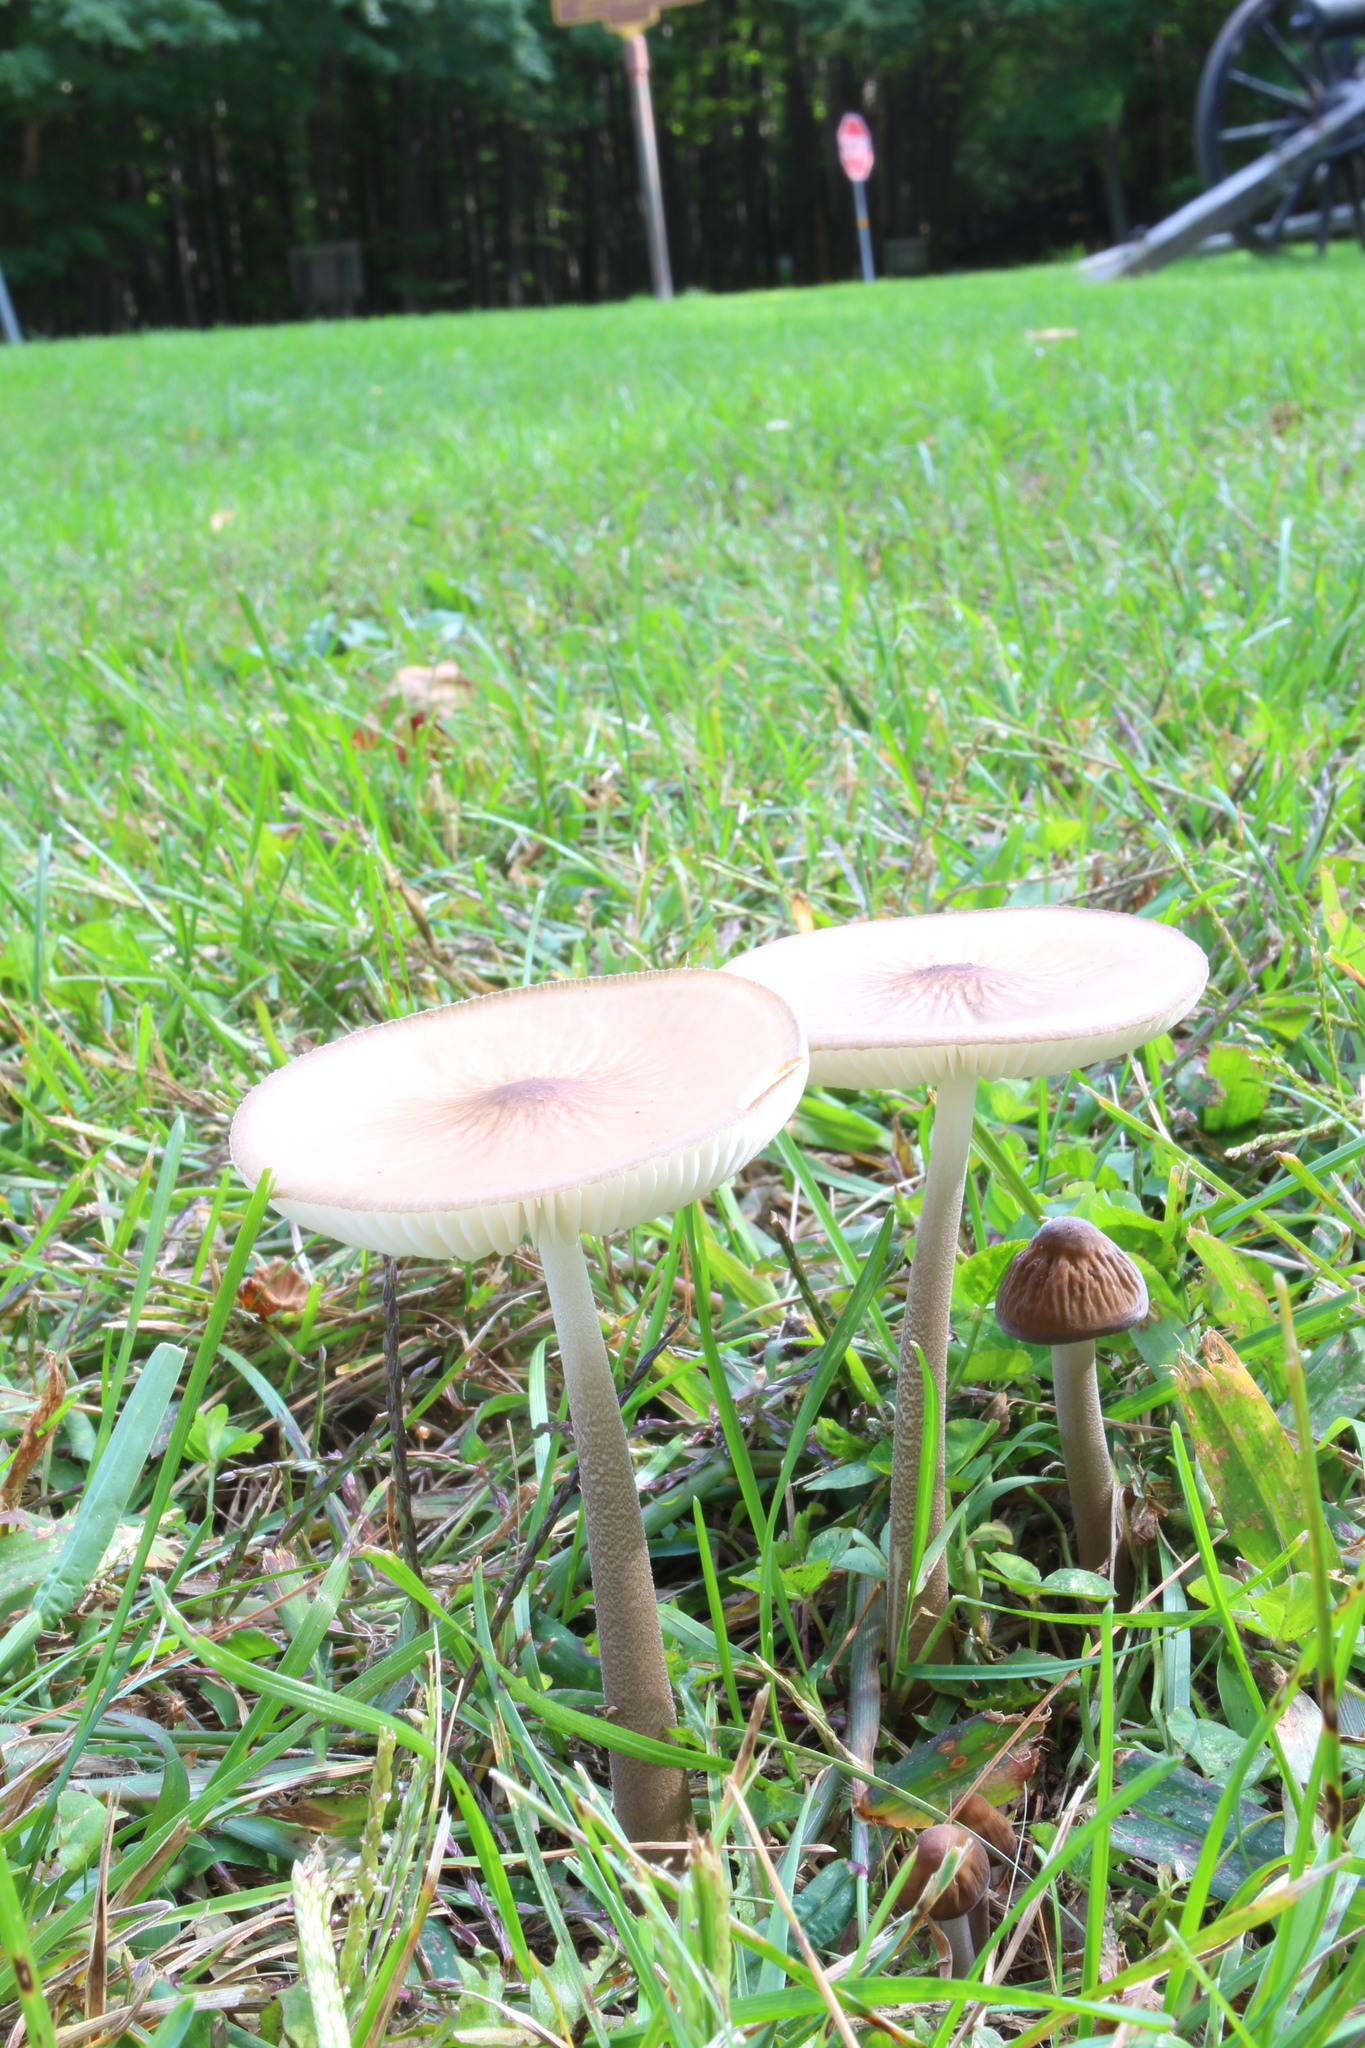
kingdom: Fungi
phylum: Basidiomycota
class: Agaricomycetes
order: Agaricales
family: Physalacriaceae
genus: Hymenopellis
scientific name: Hymenopellis limonispora
